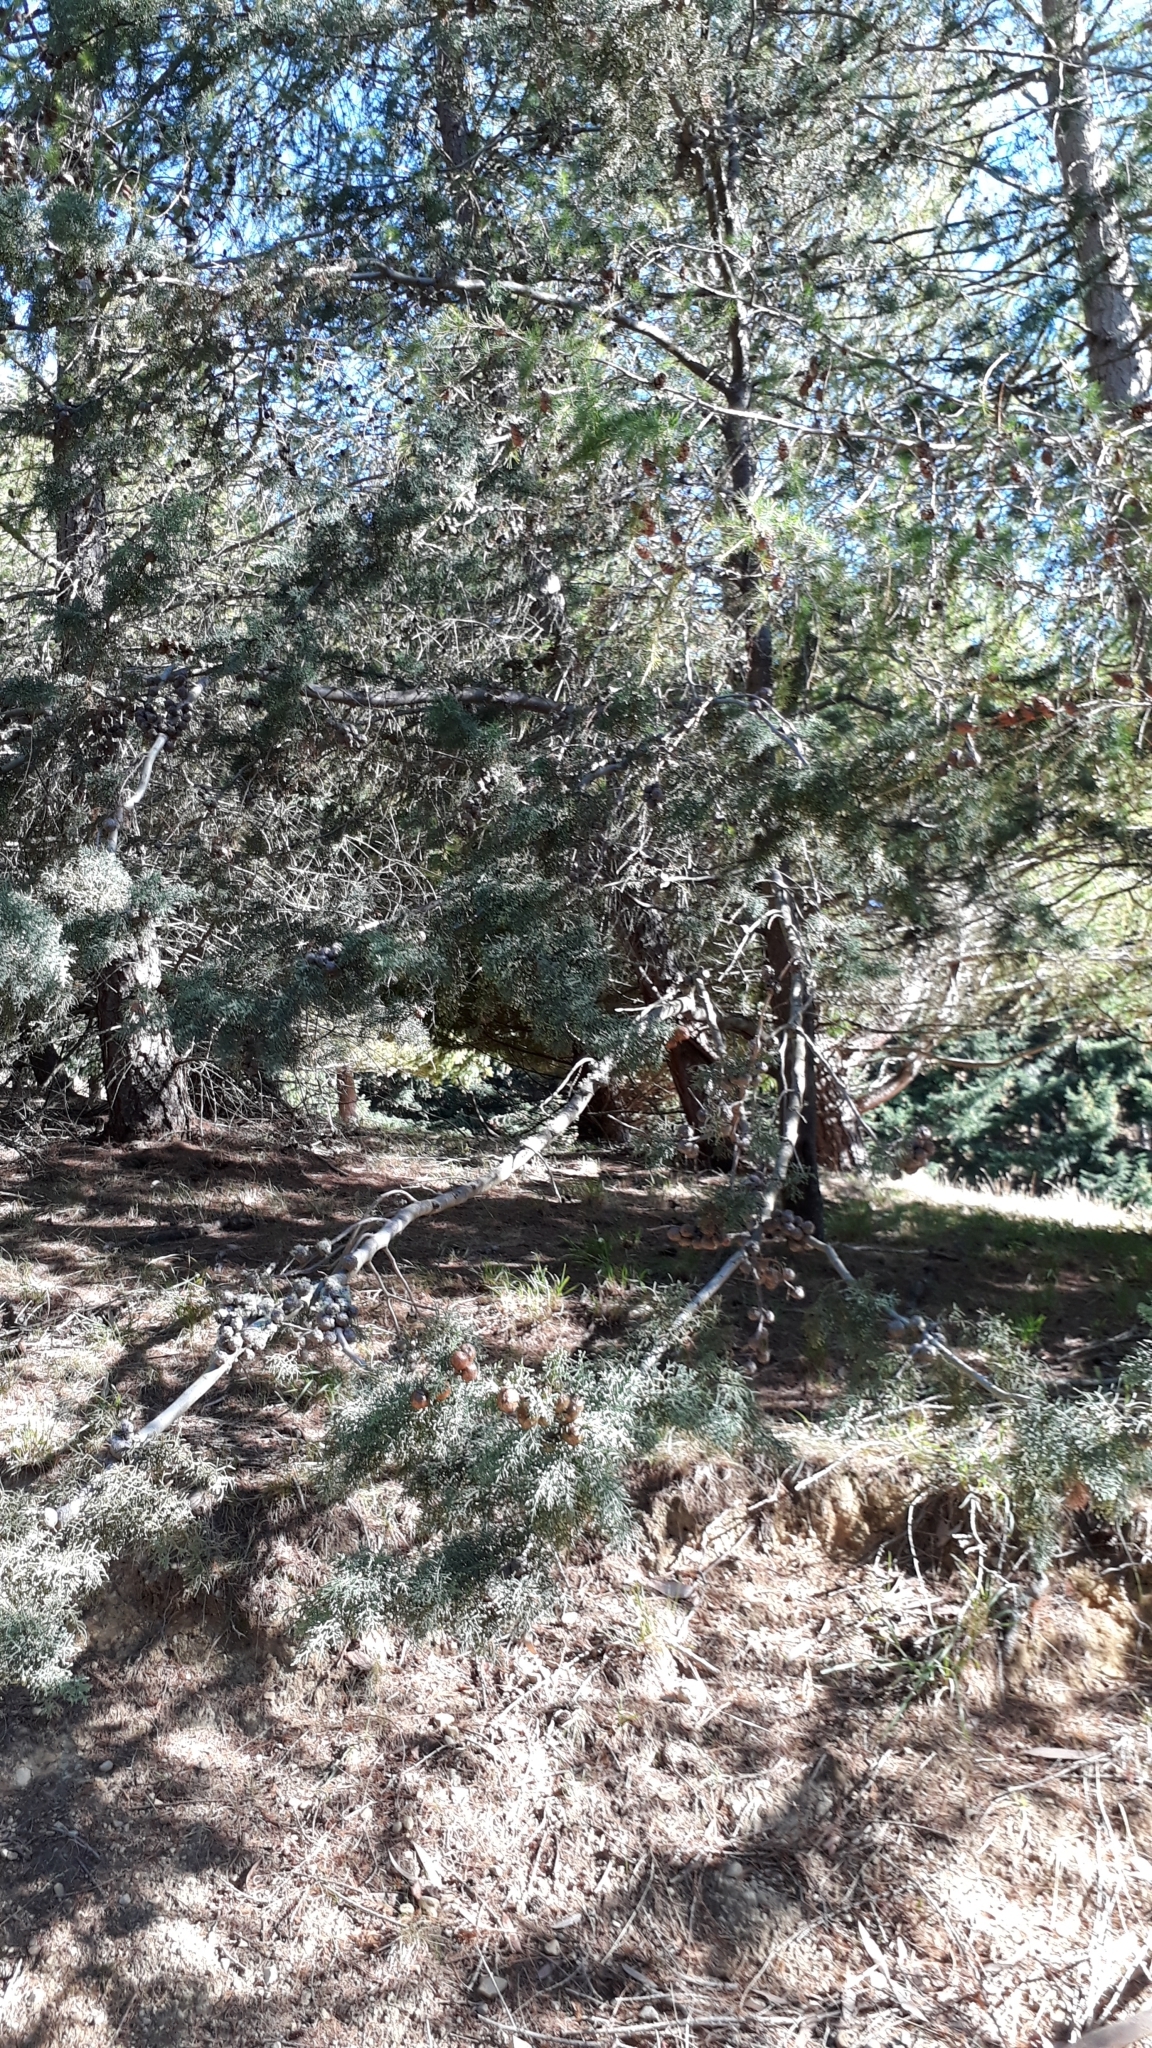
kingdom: Plantae
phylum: Tracheophyta
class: Pinopsida
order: Pinales
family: Cupressaceae
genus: Cupressus
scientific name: Cupressus macrocarpa
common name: Monterey cypress
